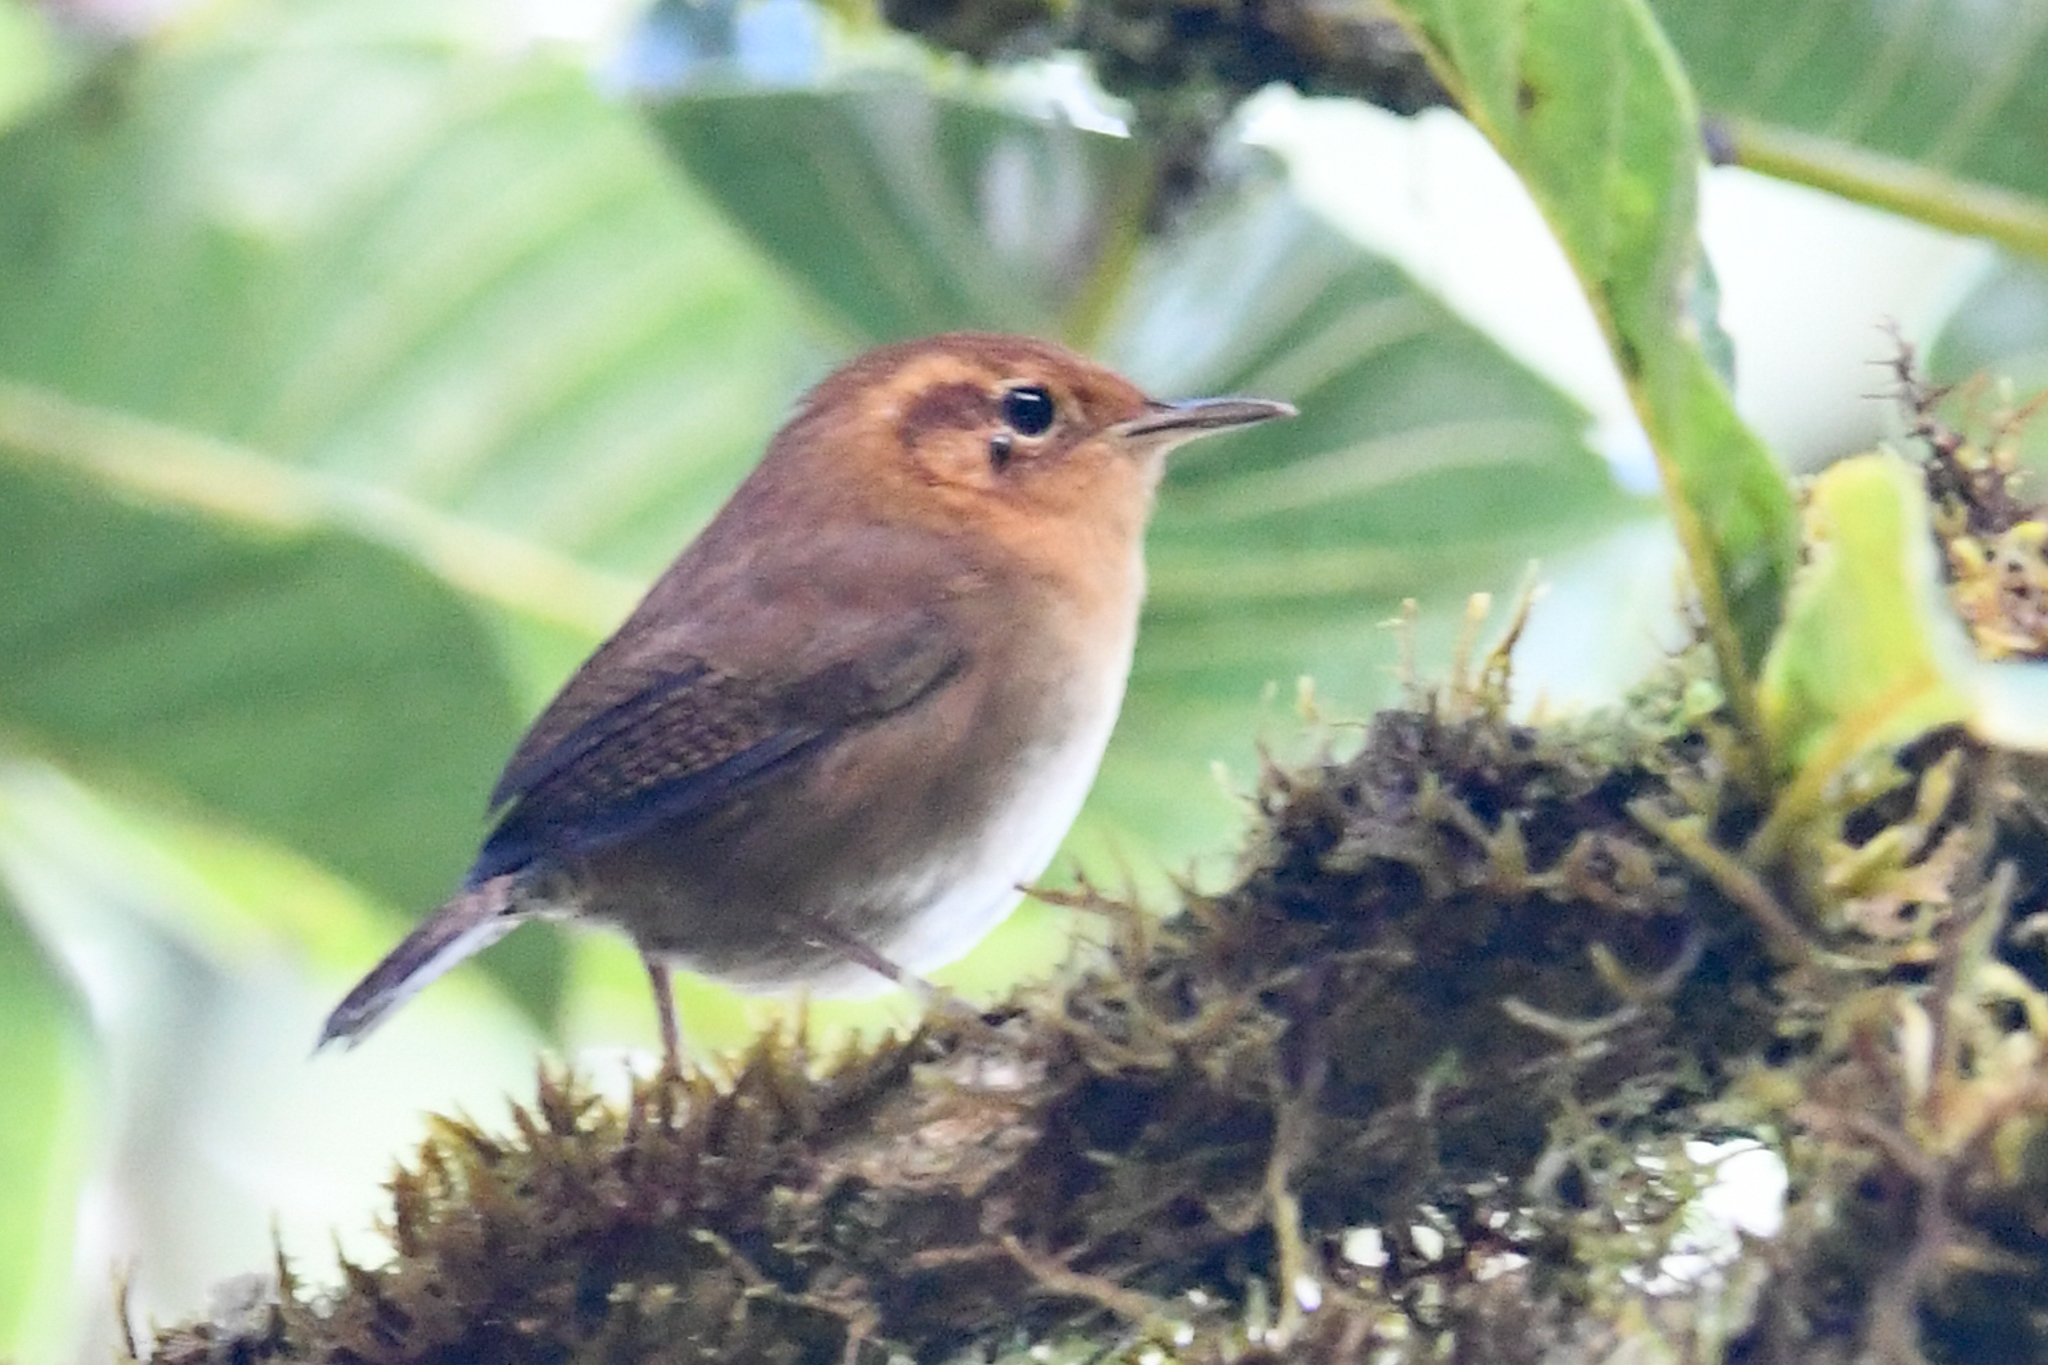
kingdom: Animalia
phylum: Chordata
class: Aves
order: Passeriformes
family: Troglodytidae
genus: Troglodytes
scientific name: Troglodytes ochraceus
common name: Ochraceous wren
